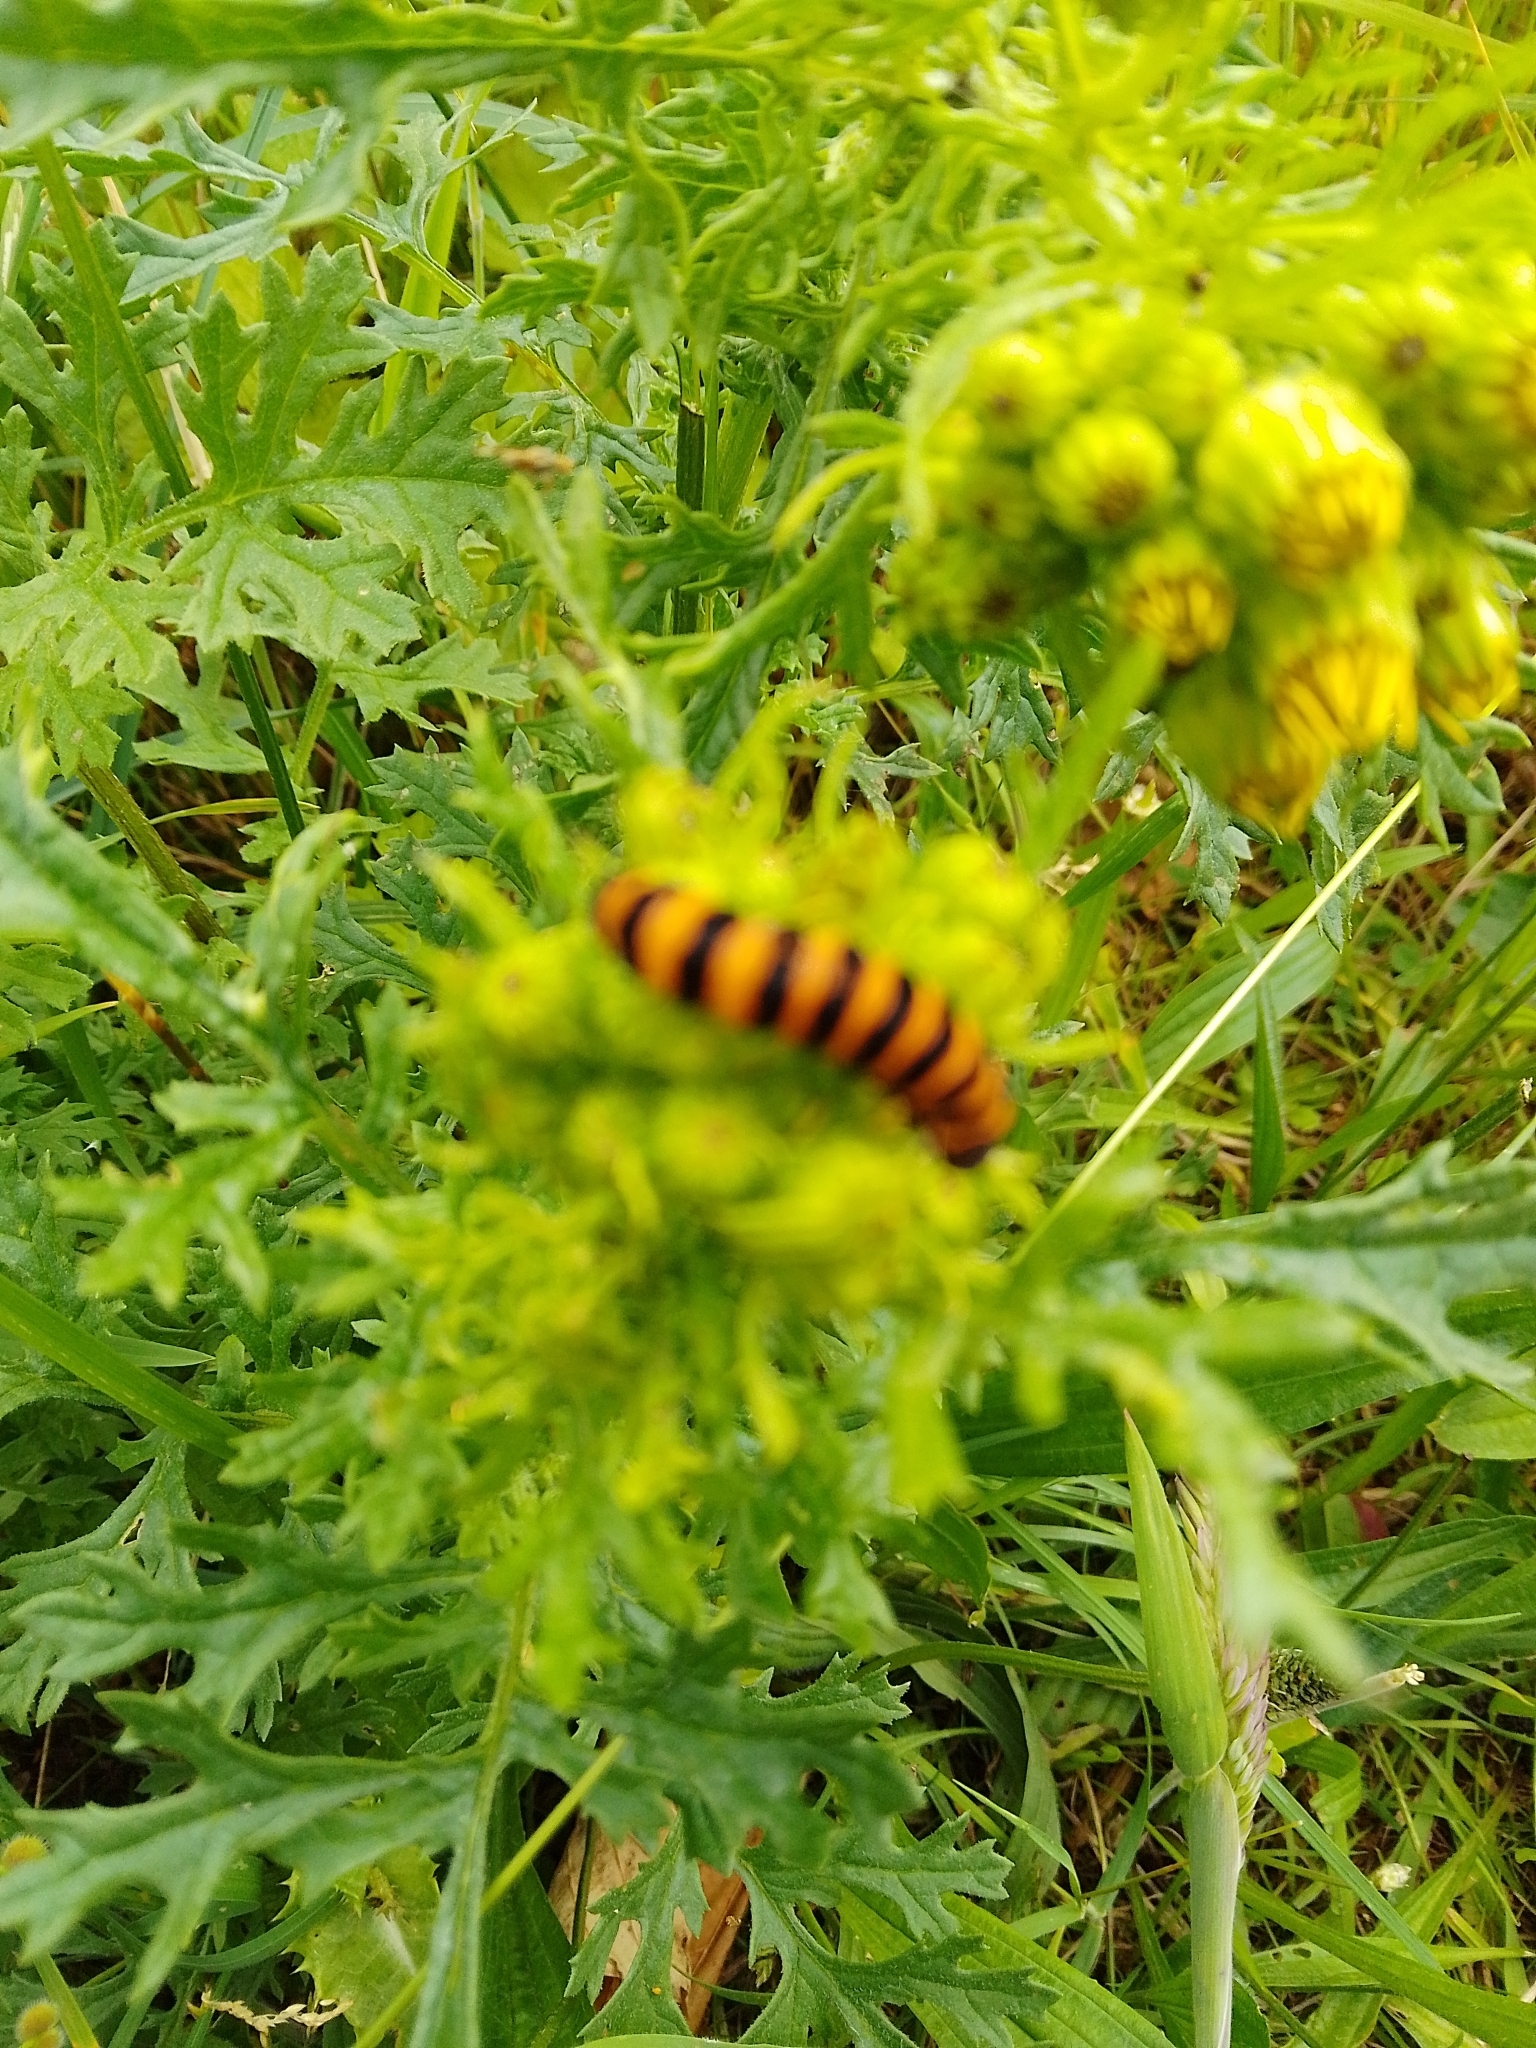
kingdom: Animalia
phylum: Arthropoda
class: Insecta
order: Lepidoptera
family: Erebidae
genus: Tyria
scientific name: Tyria jacobaeae
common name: Cinnabar
